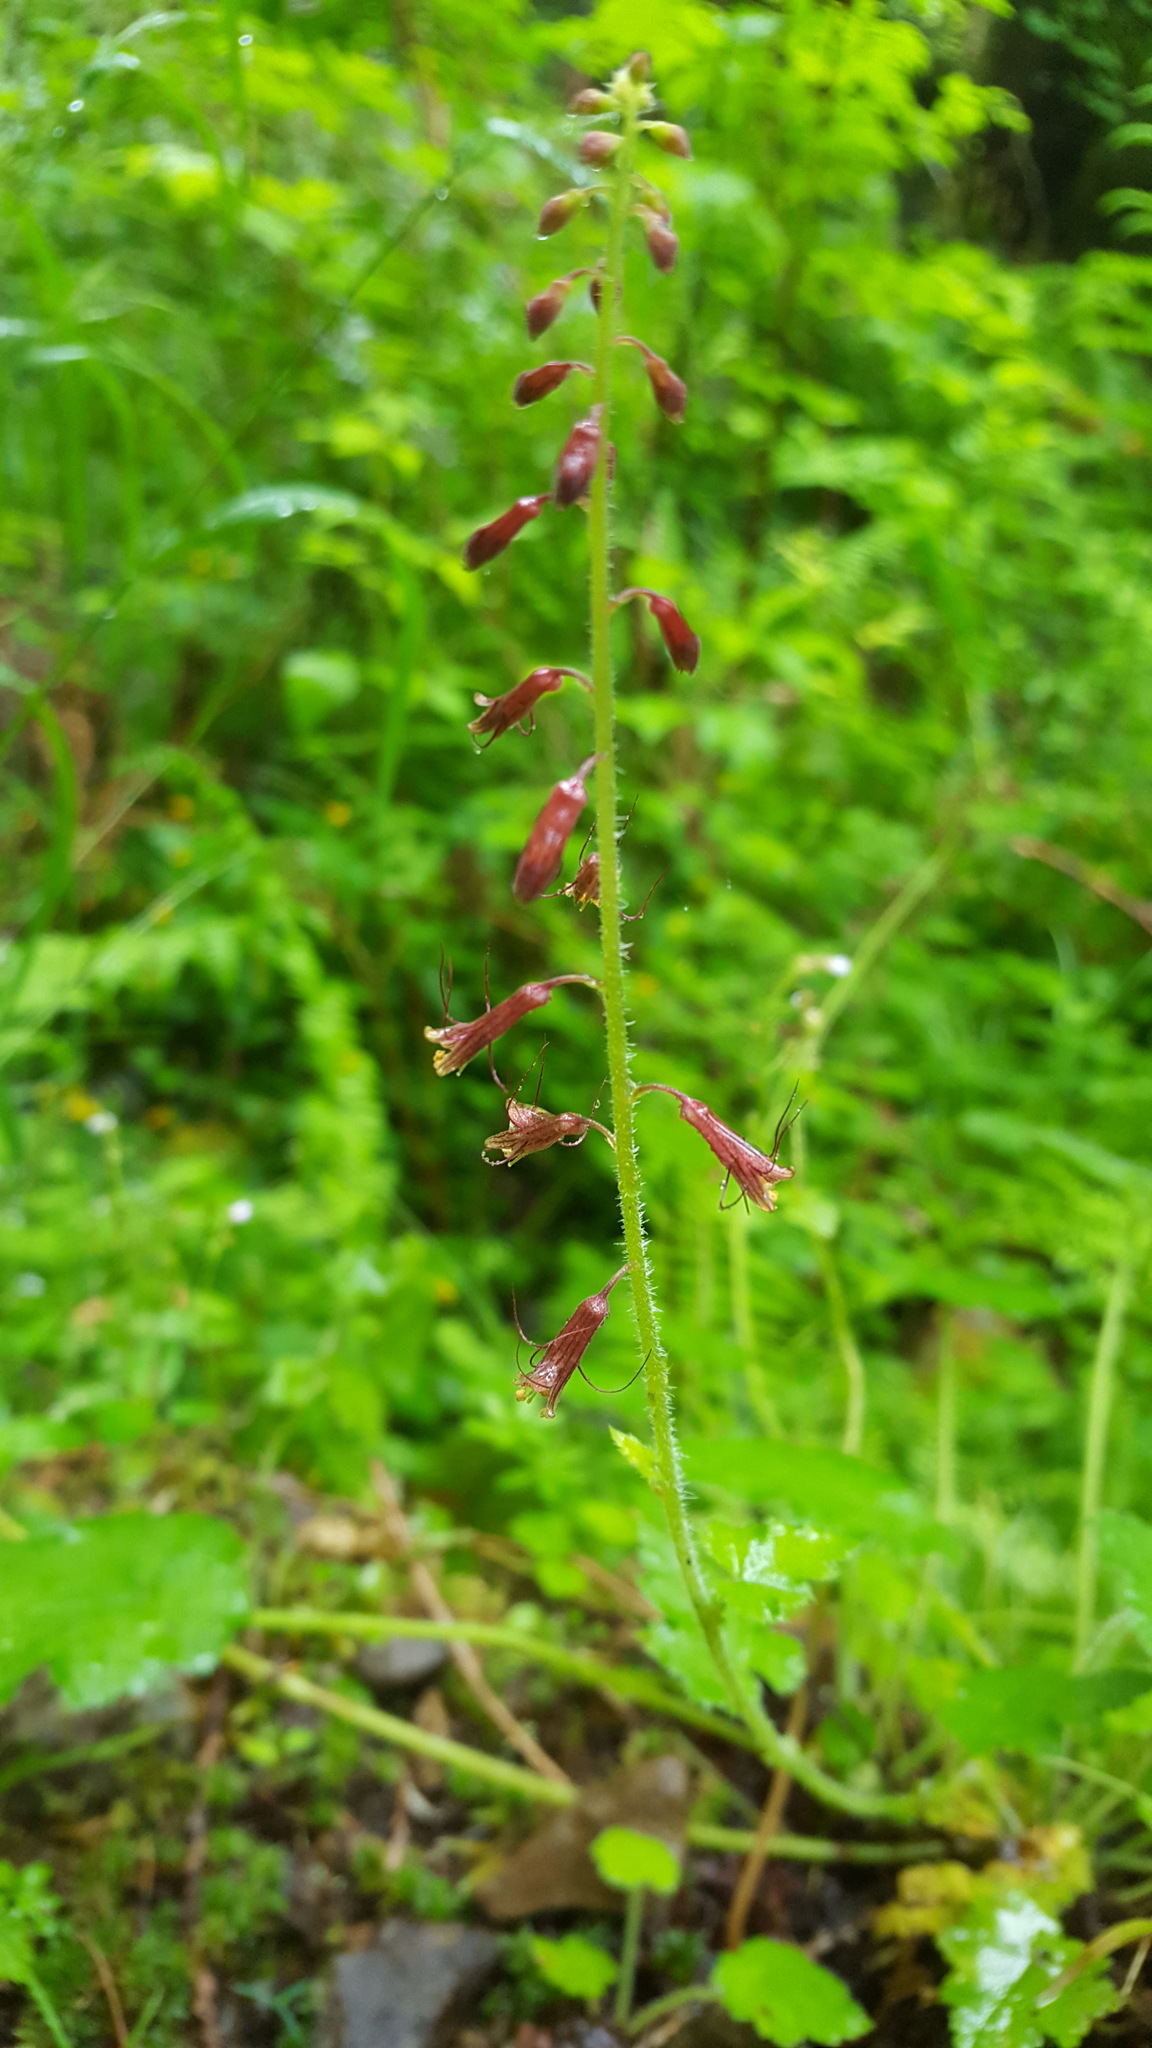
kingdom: Plantae
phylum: Tracheophyta
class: Magnoliopsida
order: Saxifragales
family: Saxifragaceae
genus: Tolmiea
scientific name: Tolmiea menziesii
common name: Pick-a-back-plant
